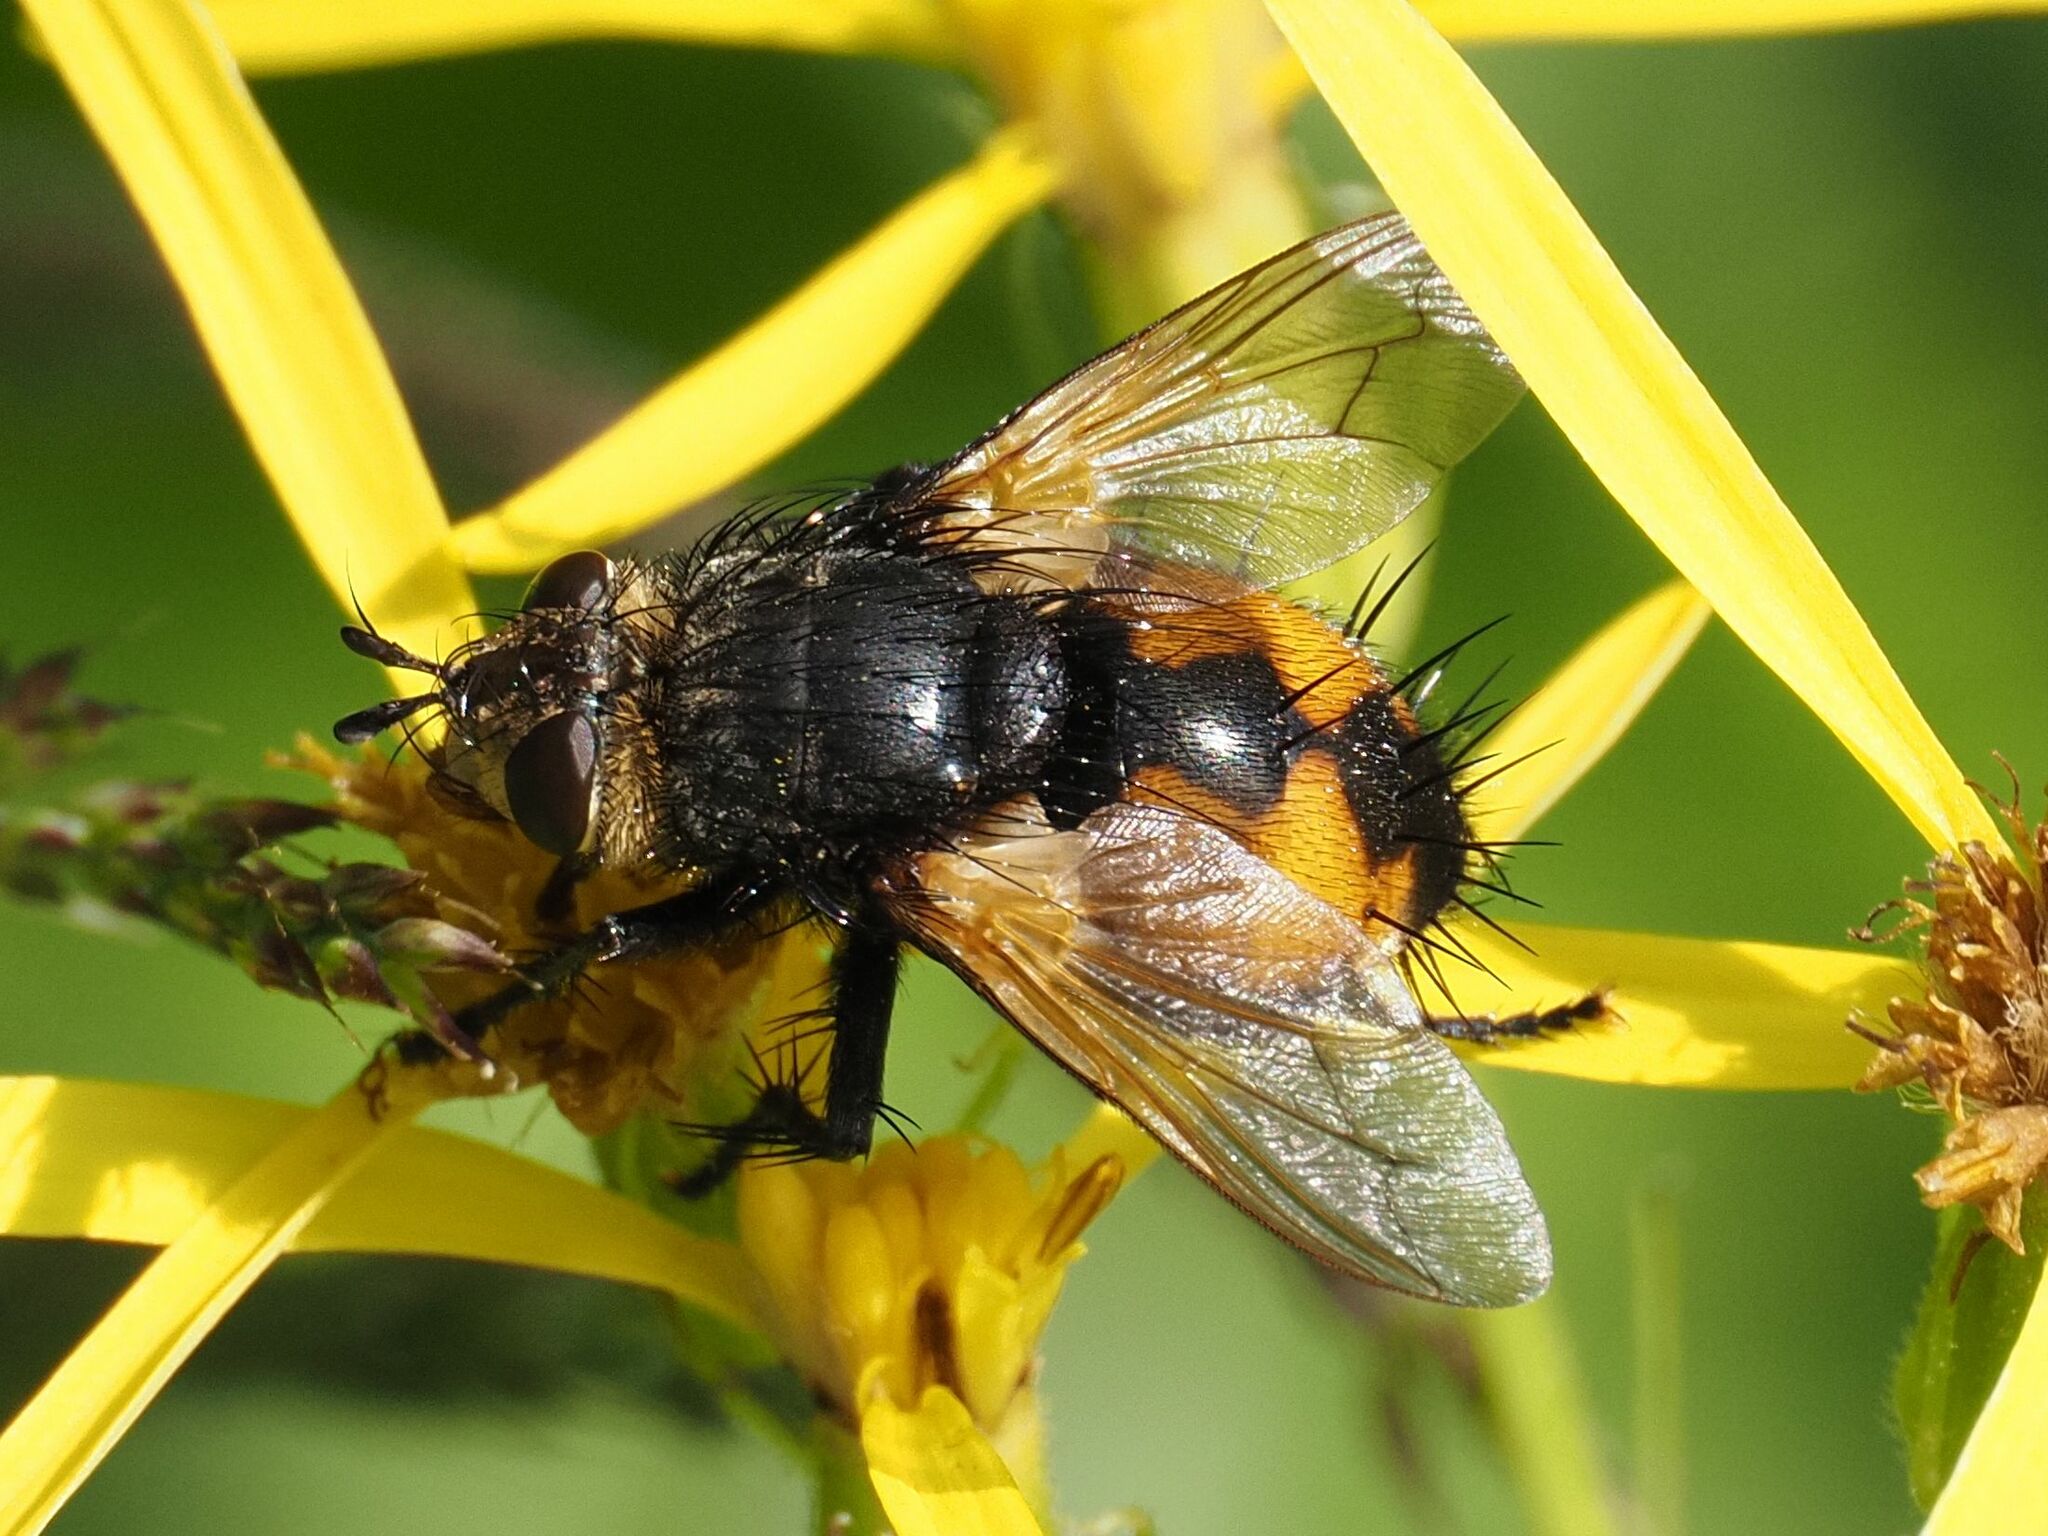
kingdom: Animalia
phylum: Arthropoda
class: Insecta
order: Diptera
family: Tachinidae
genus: Nowickia
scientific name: Nowickia ferox
